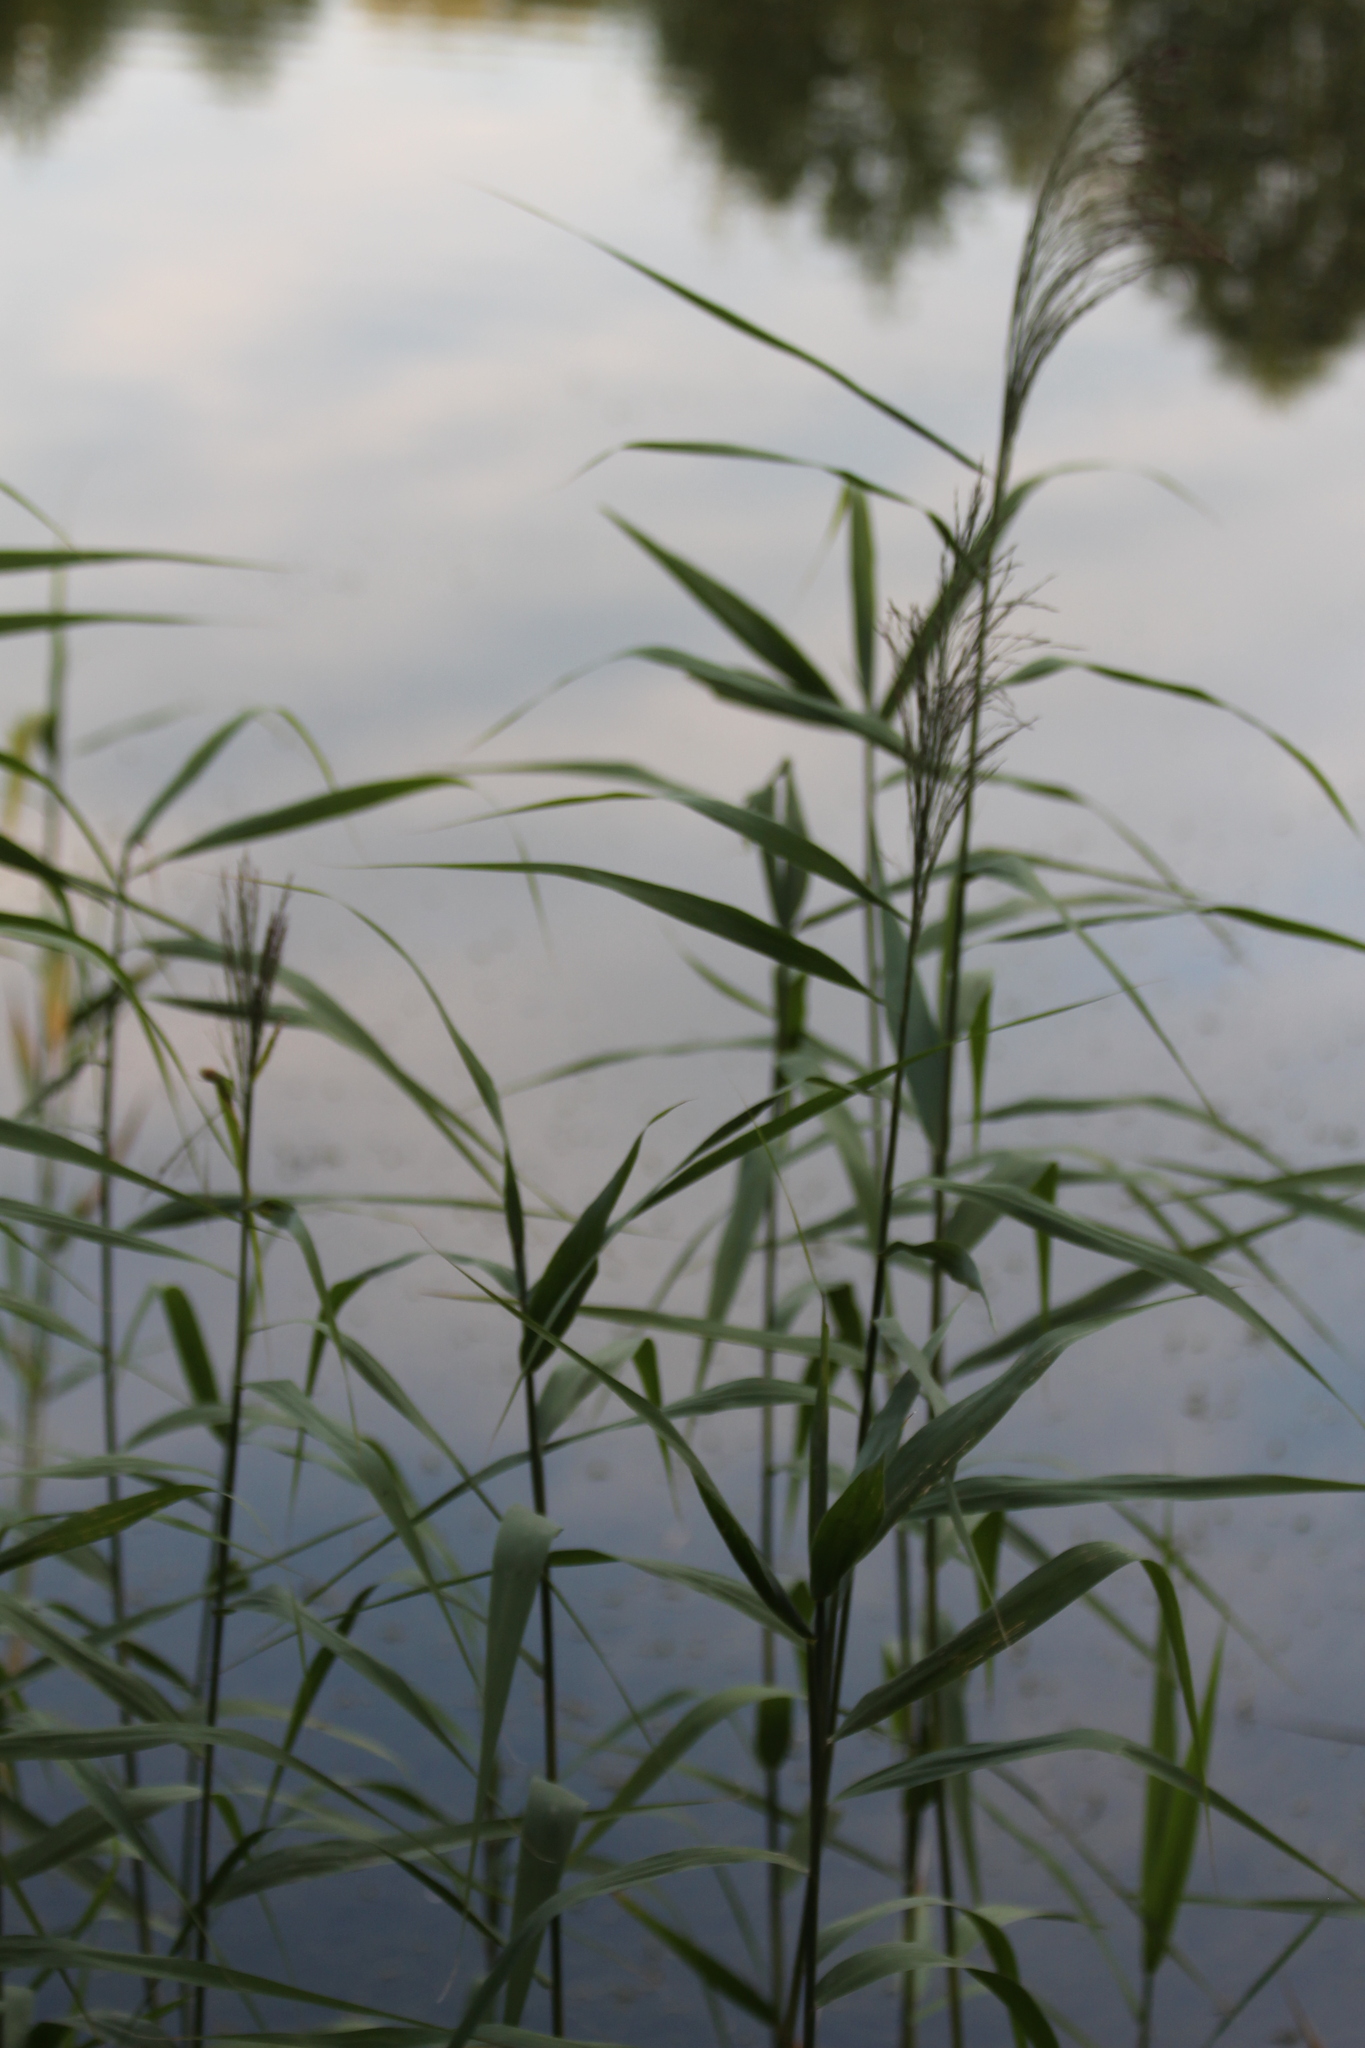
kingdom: Plantae
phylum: Tracheophyta
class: Liliopsida
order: Poales
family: Poaceae
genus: Phragmites
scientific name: Phragmites australis
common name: Common reed
